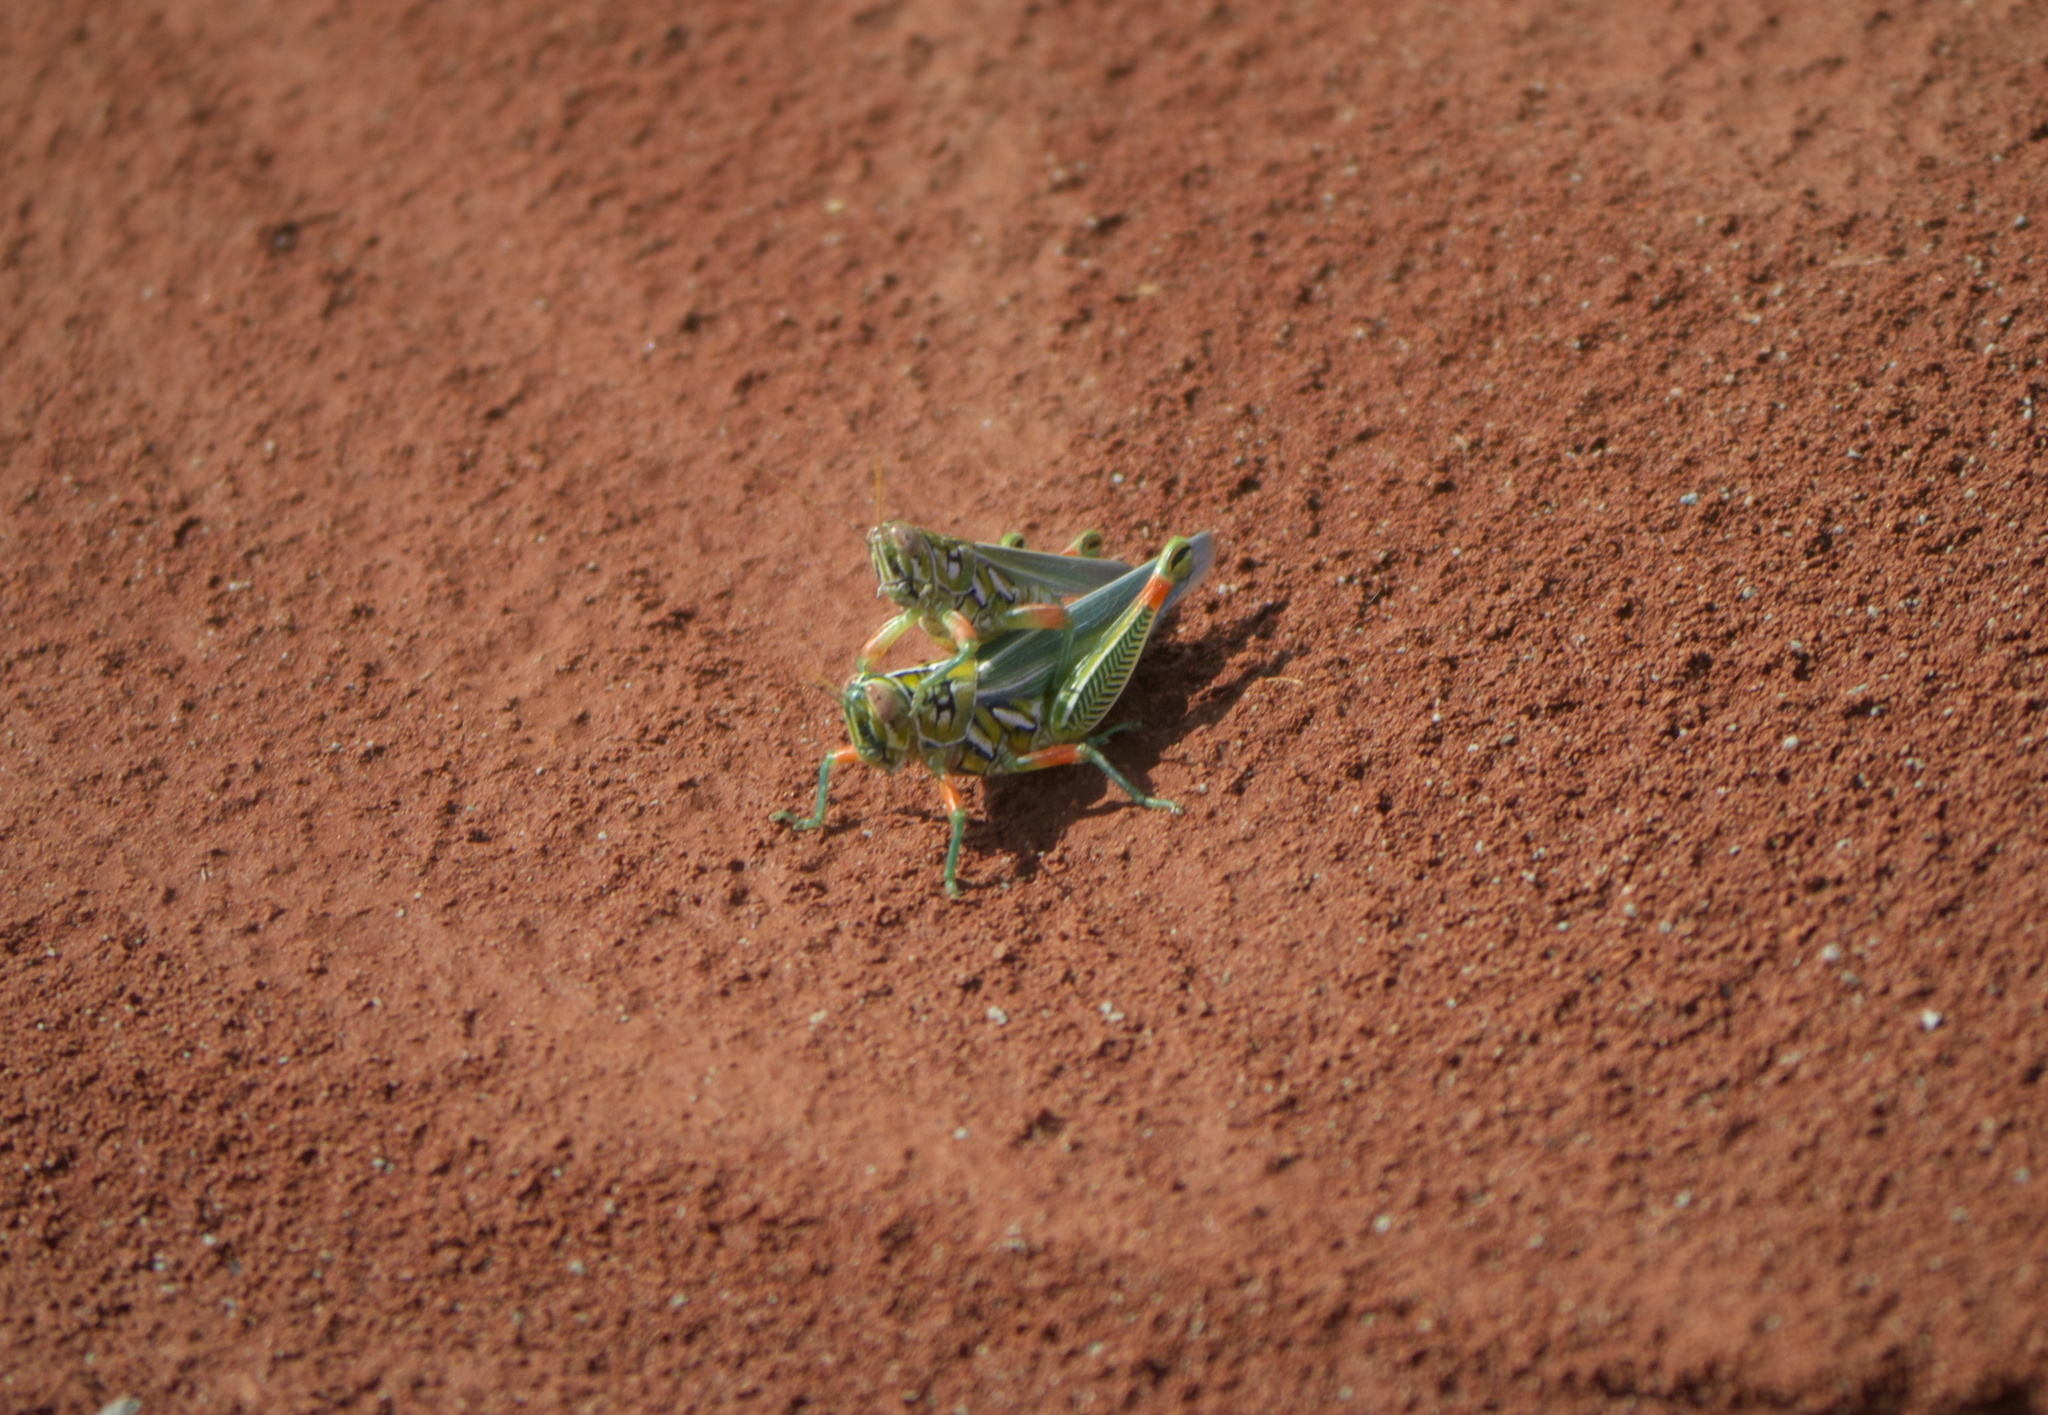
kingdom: Animalia
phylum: Arthropoda
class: Insecta
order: Orthoptera
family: Acrididae
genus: Hesperotettix
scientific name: Hesperotettix viridis
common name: Meadow purple-striped grasshopper
